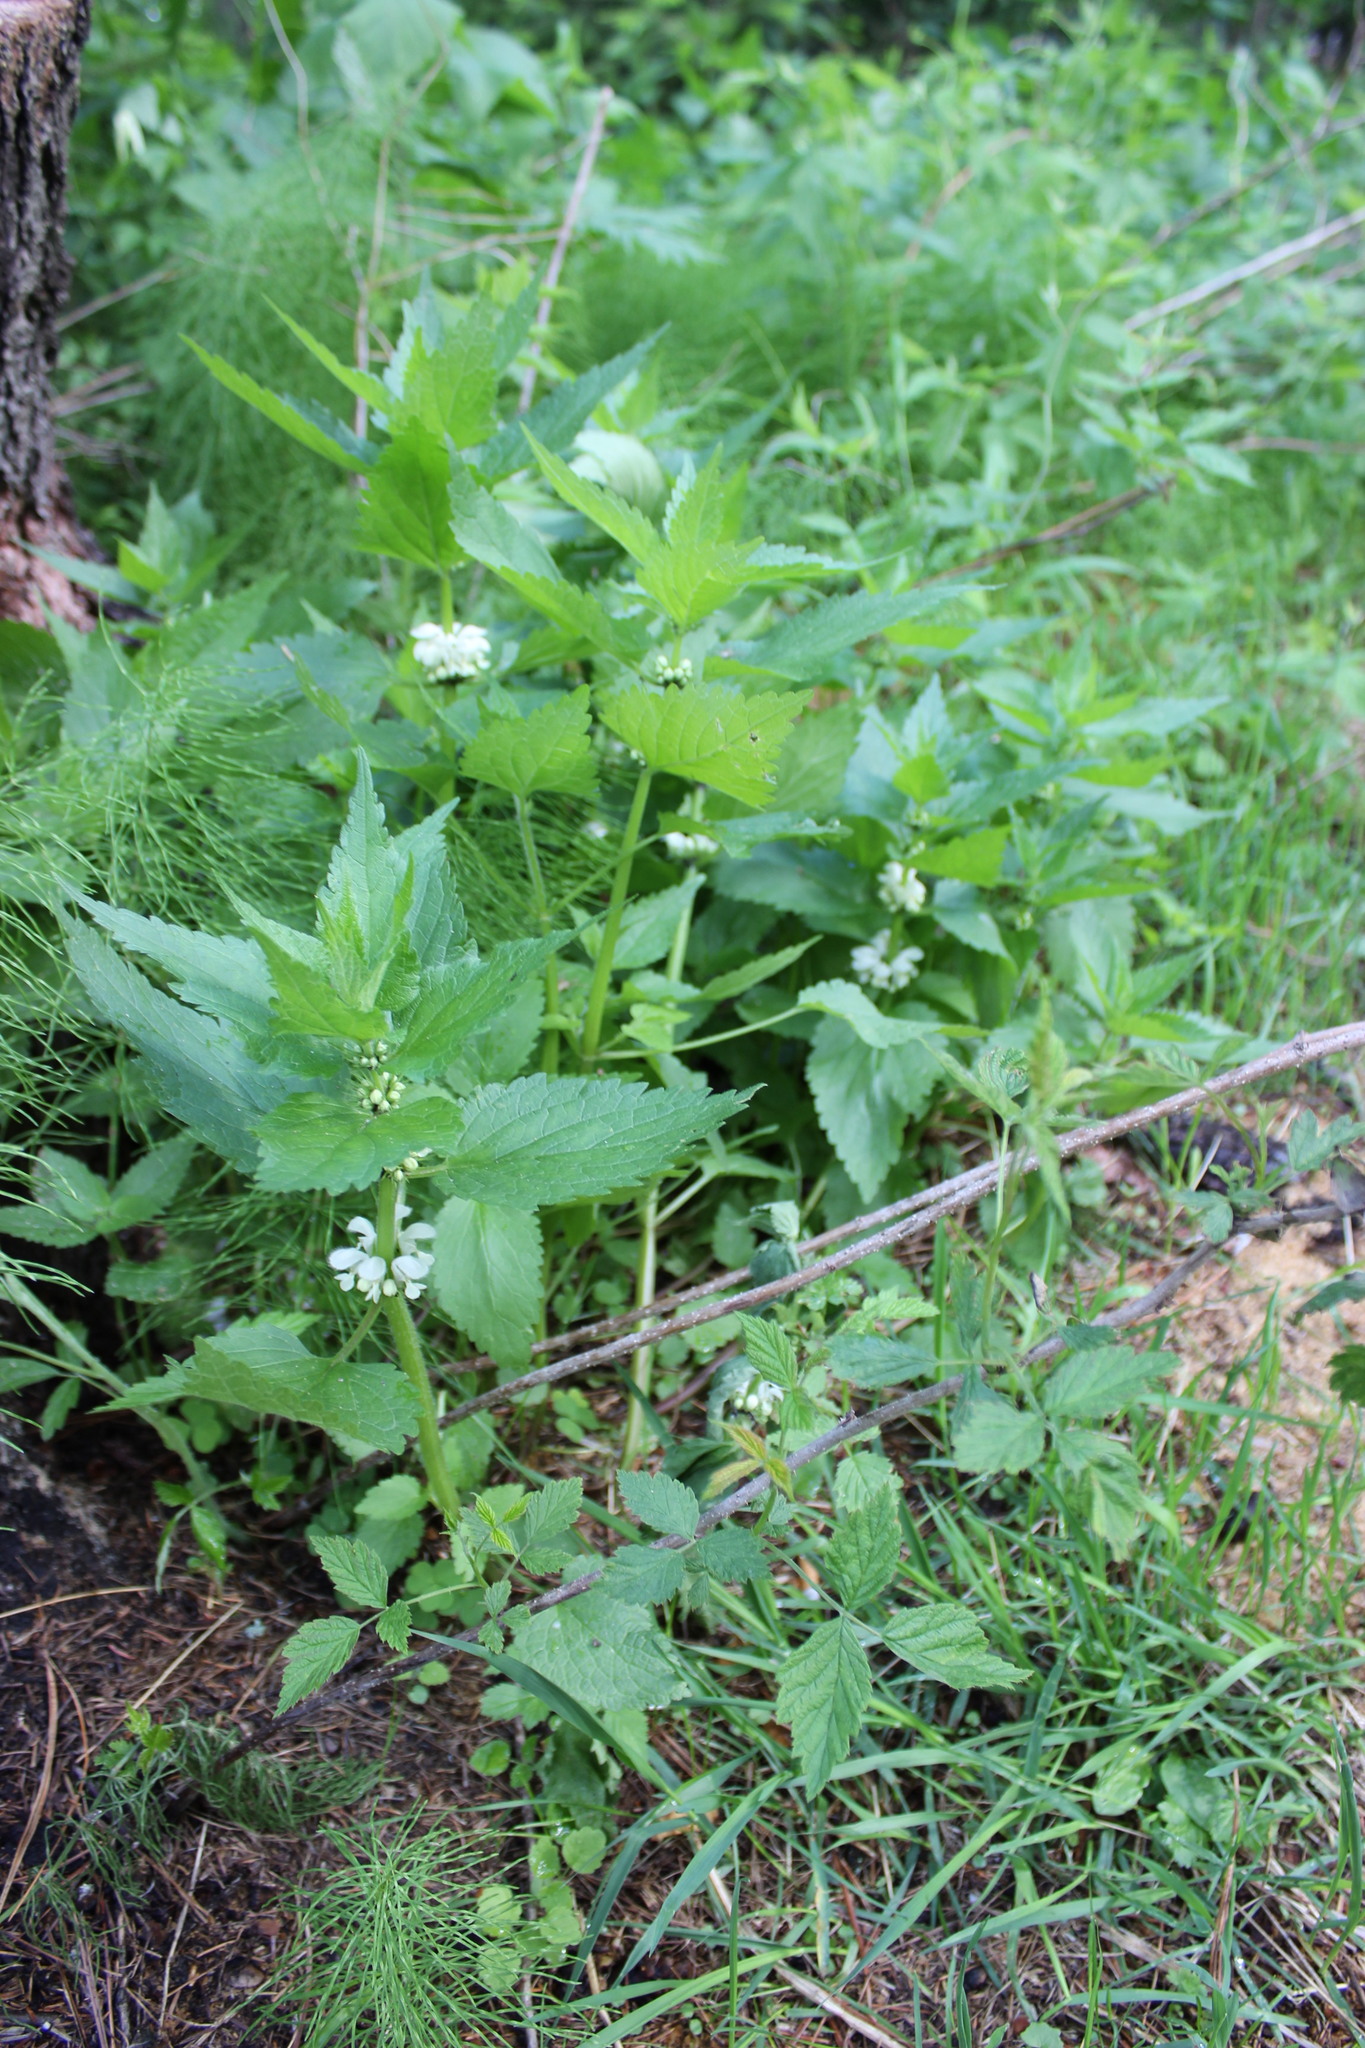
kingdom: Plantae
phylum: Tracheophyta
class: Magnoliopsida
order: Lamiales
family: Lamiaceae
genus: Lamium
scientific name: Lamium album
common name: White dead-nettle
